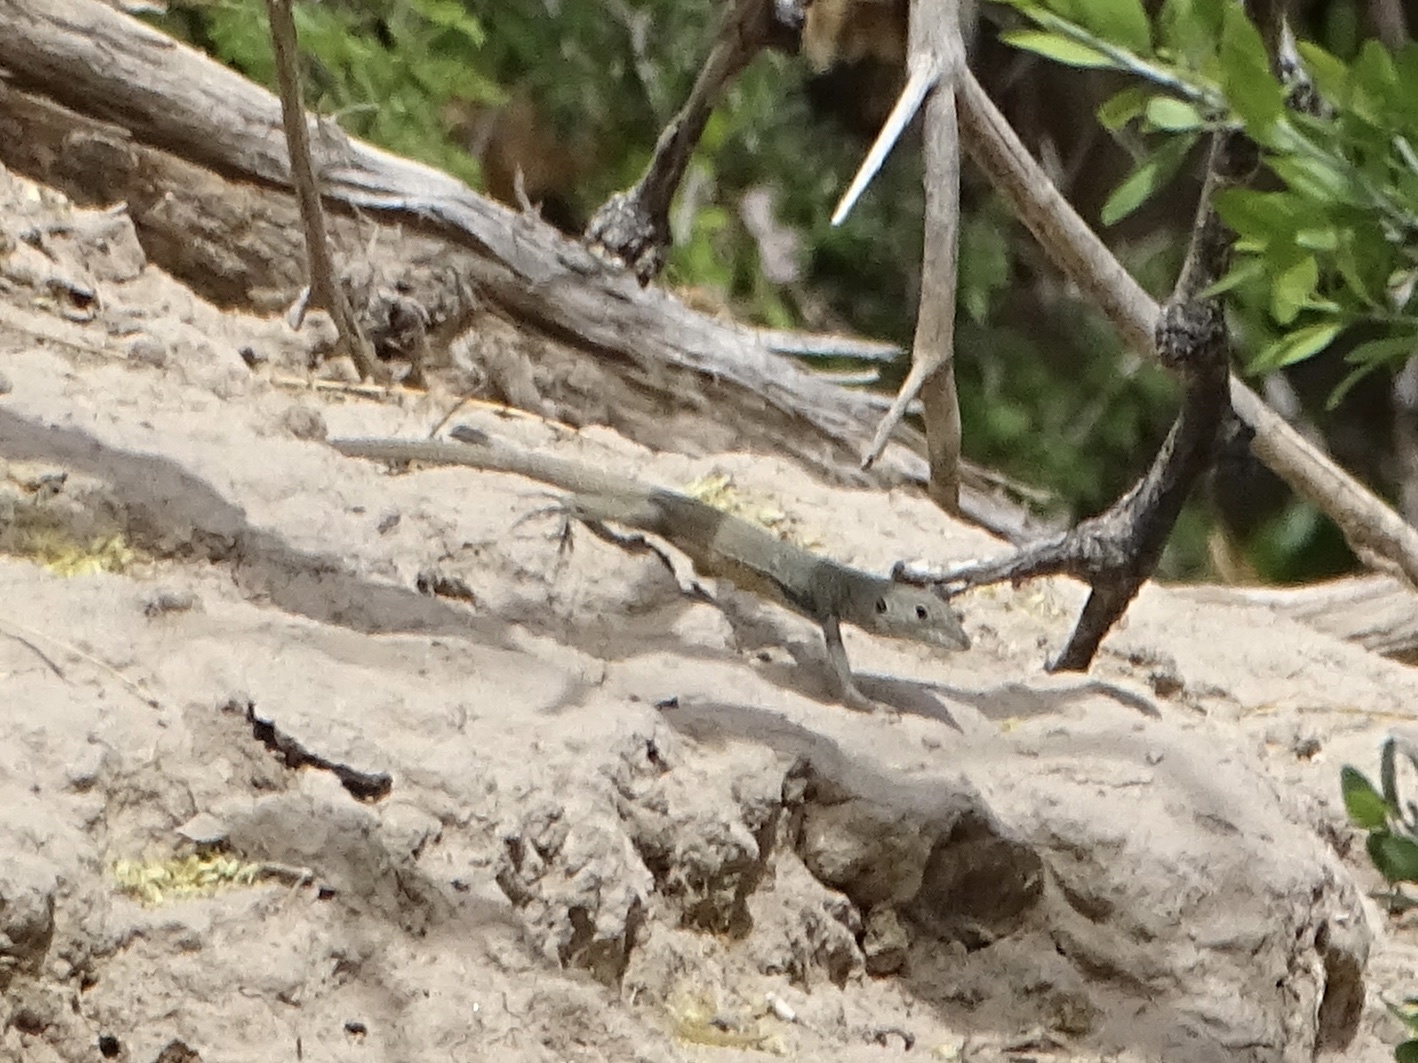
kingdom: Animalia
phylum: Chordata
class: Squamata
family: Teiidae
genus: Aspidoscelis
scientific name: Aspidoscelis marmoratus
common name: Eastern marbled whiptail [reticuloriens]
